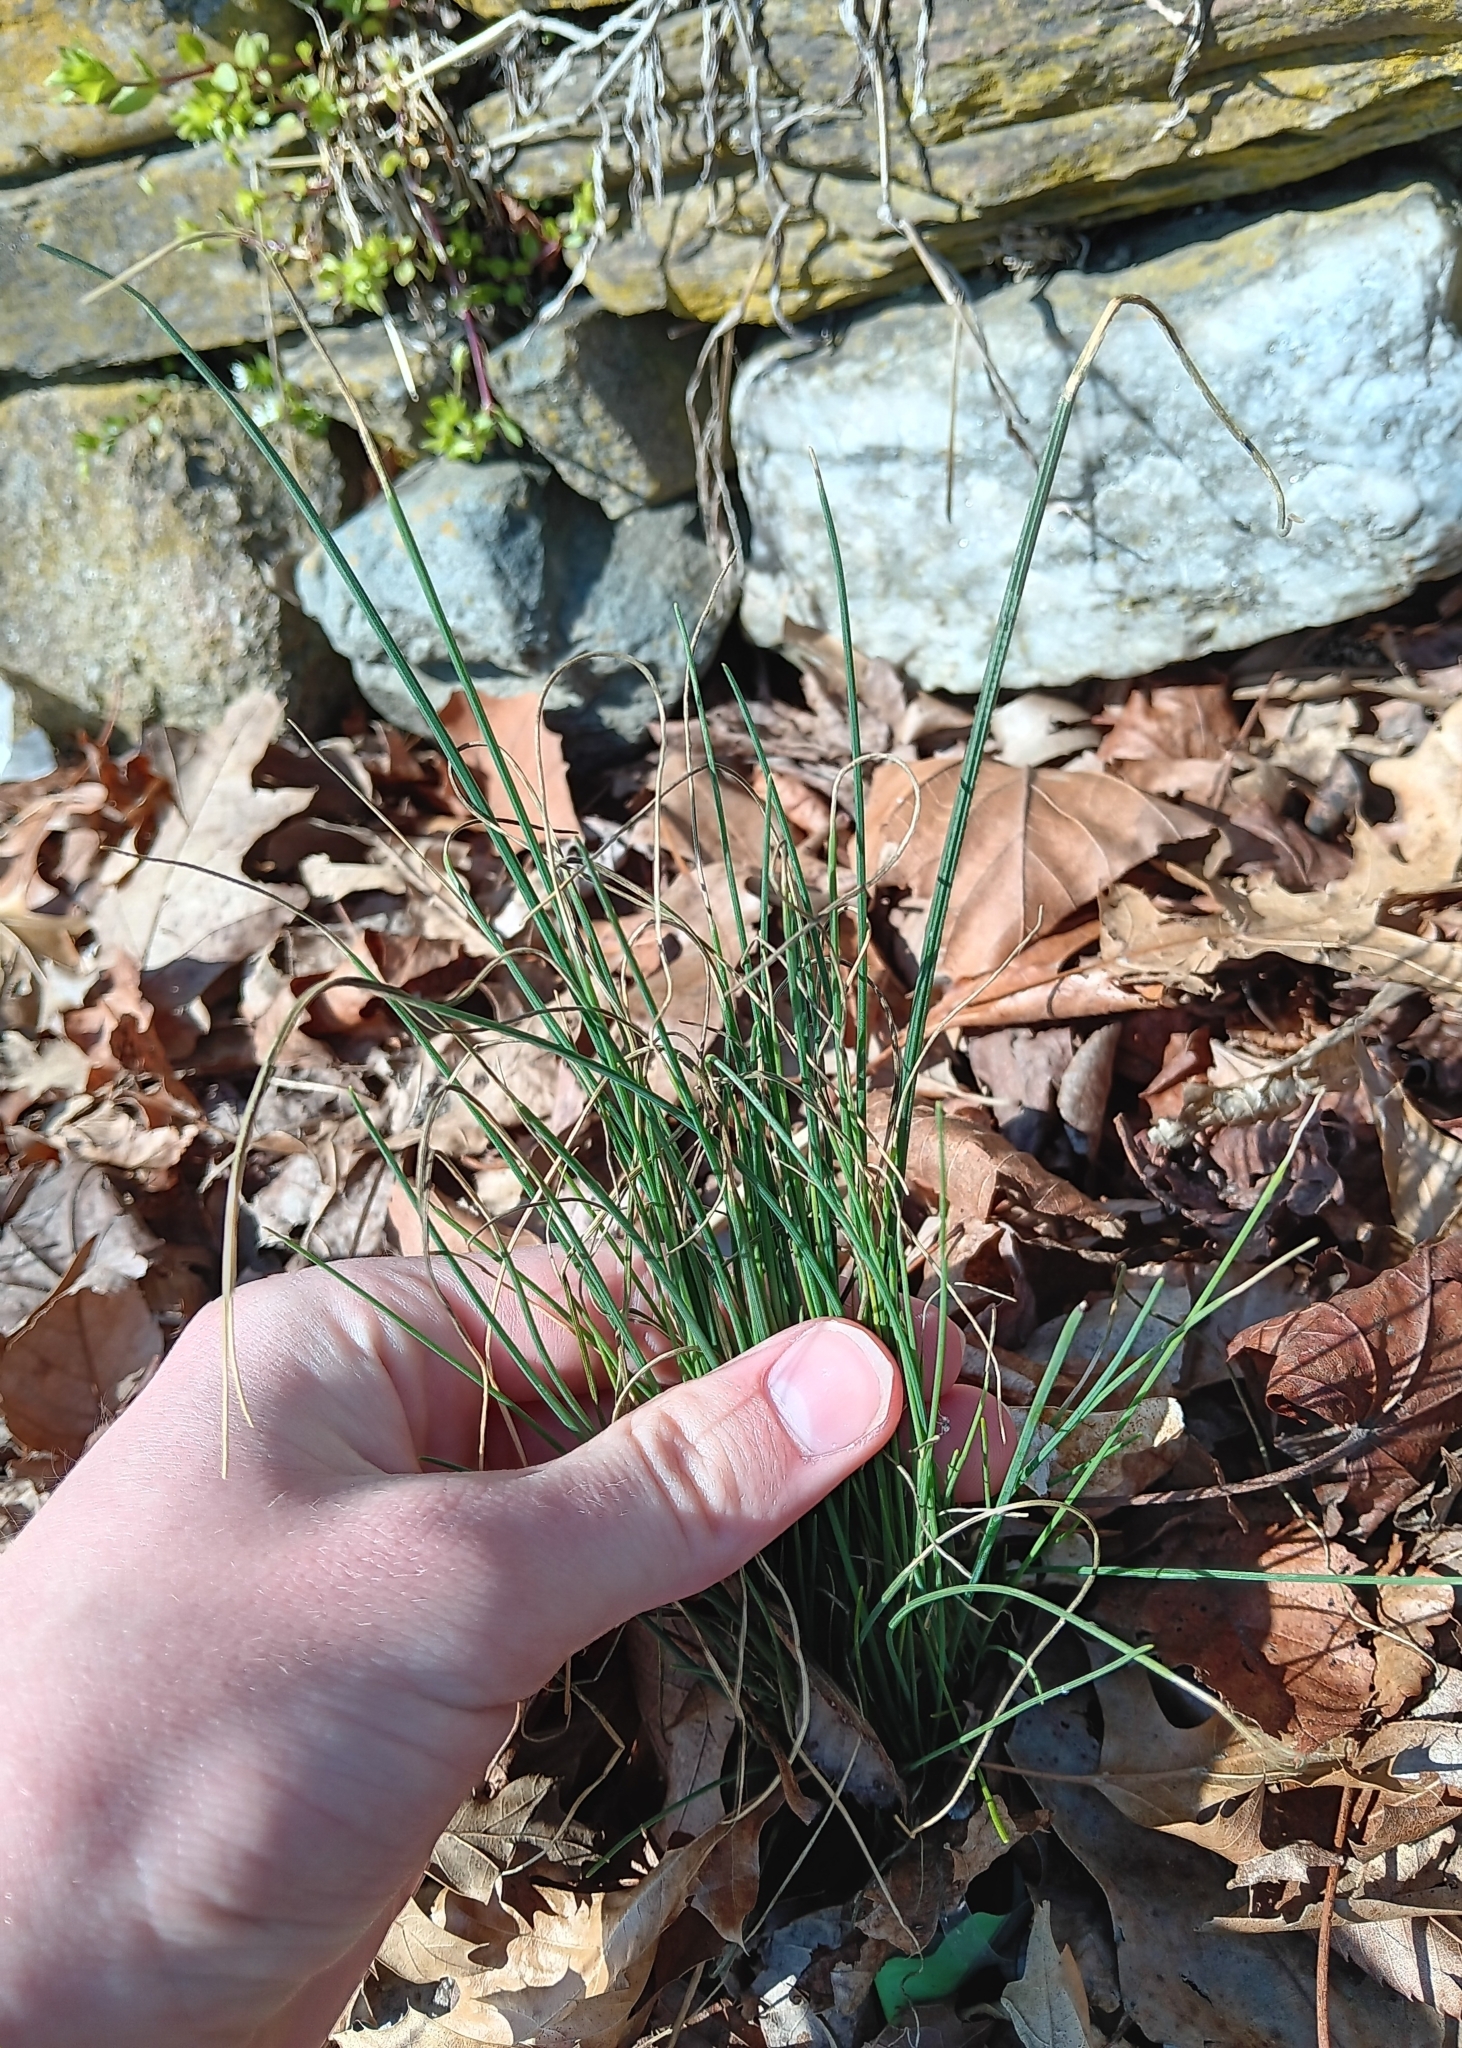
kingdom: Plantae
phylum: Tracheophyta
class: Liliopsida
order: Asparagales
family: Amaryllidaceae
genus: Allium
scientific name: Allium vineale
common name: Crow garlic
